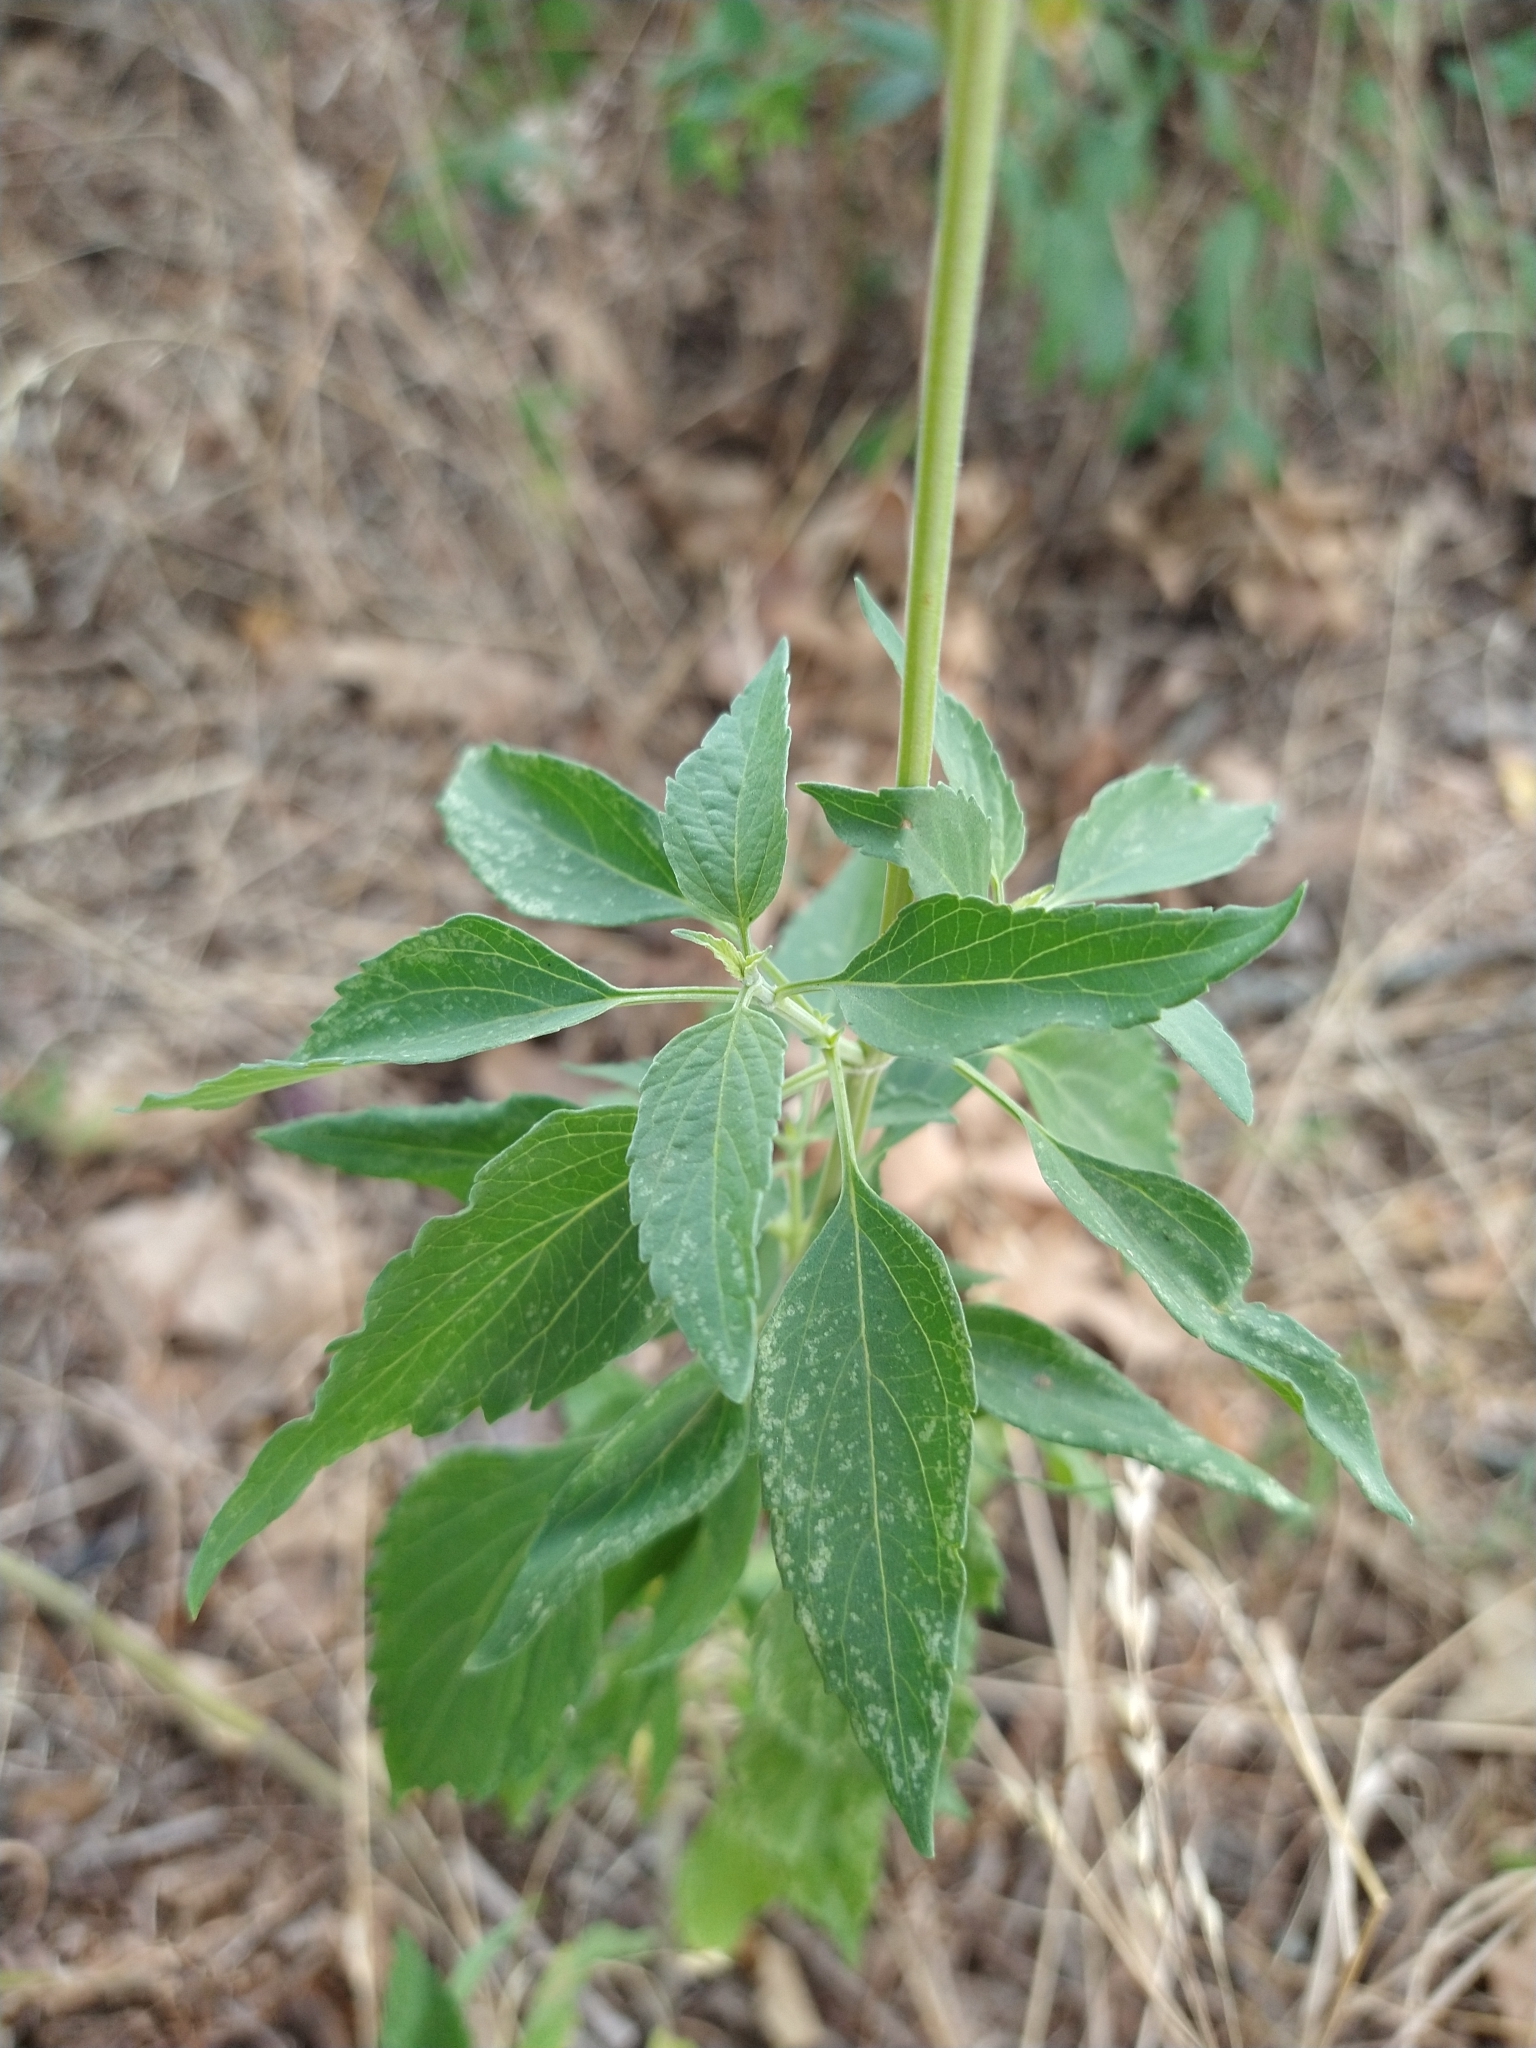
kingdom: Plantae
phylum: Tracheophyta
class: Magnoliopsida
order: Lamiales
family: Lamiaceae
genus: Salvia
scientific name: Salvia farinacea
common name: Mealy sage
